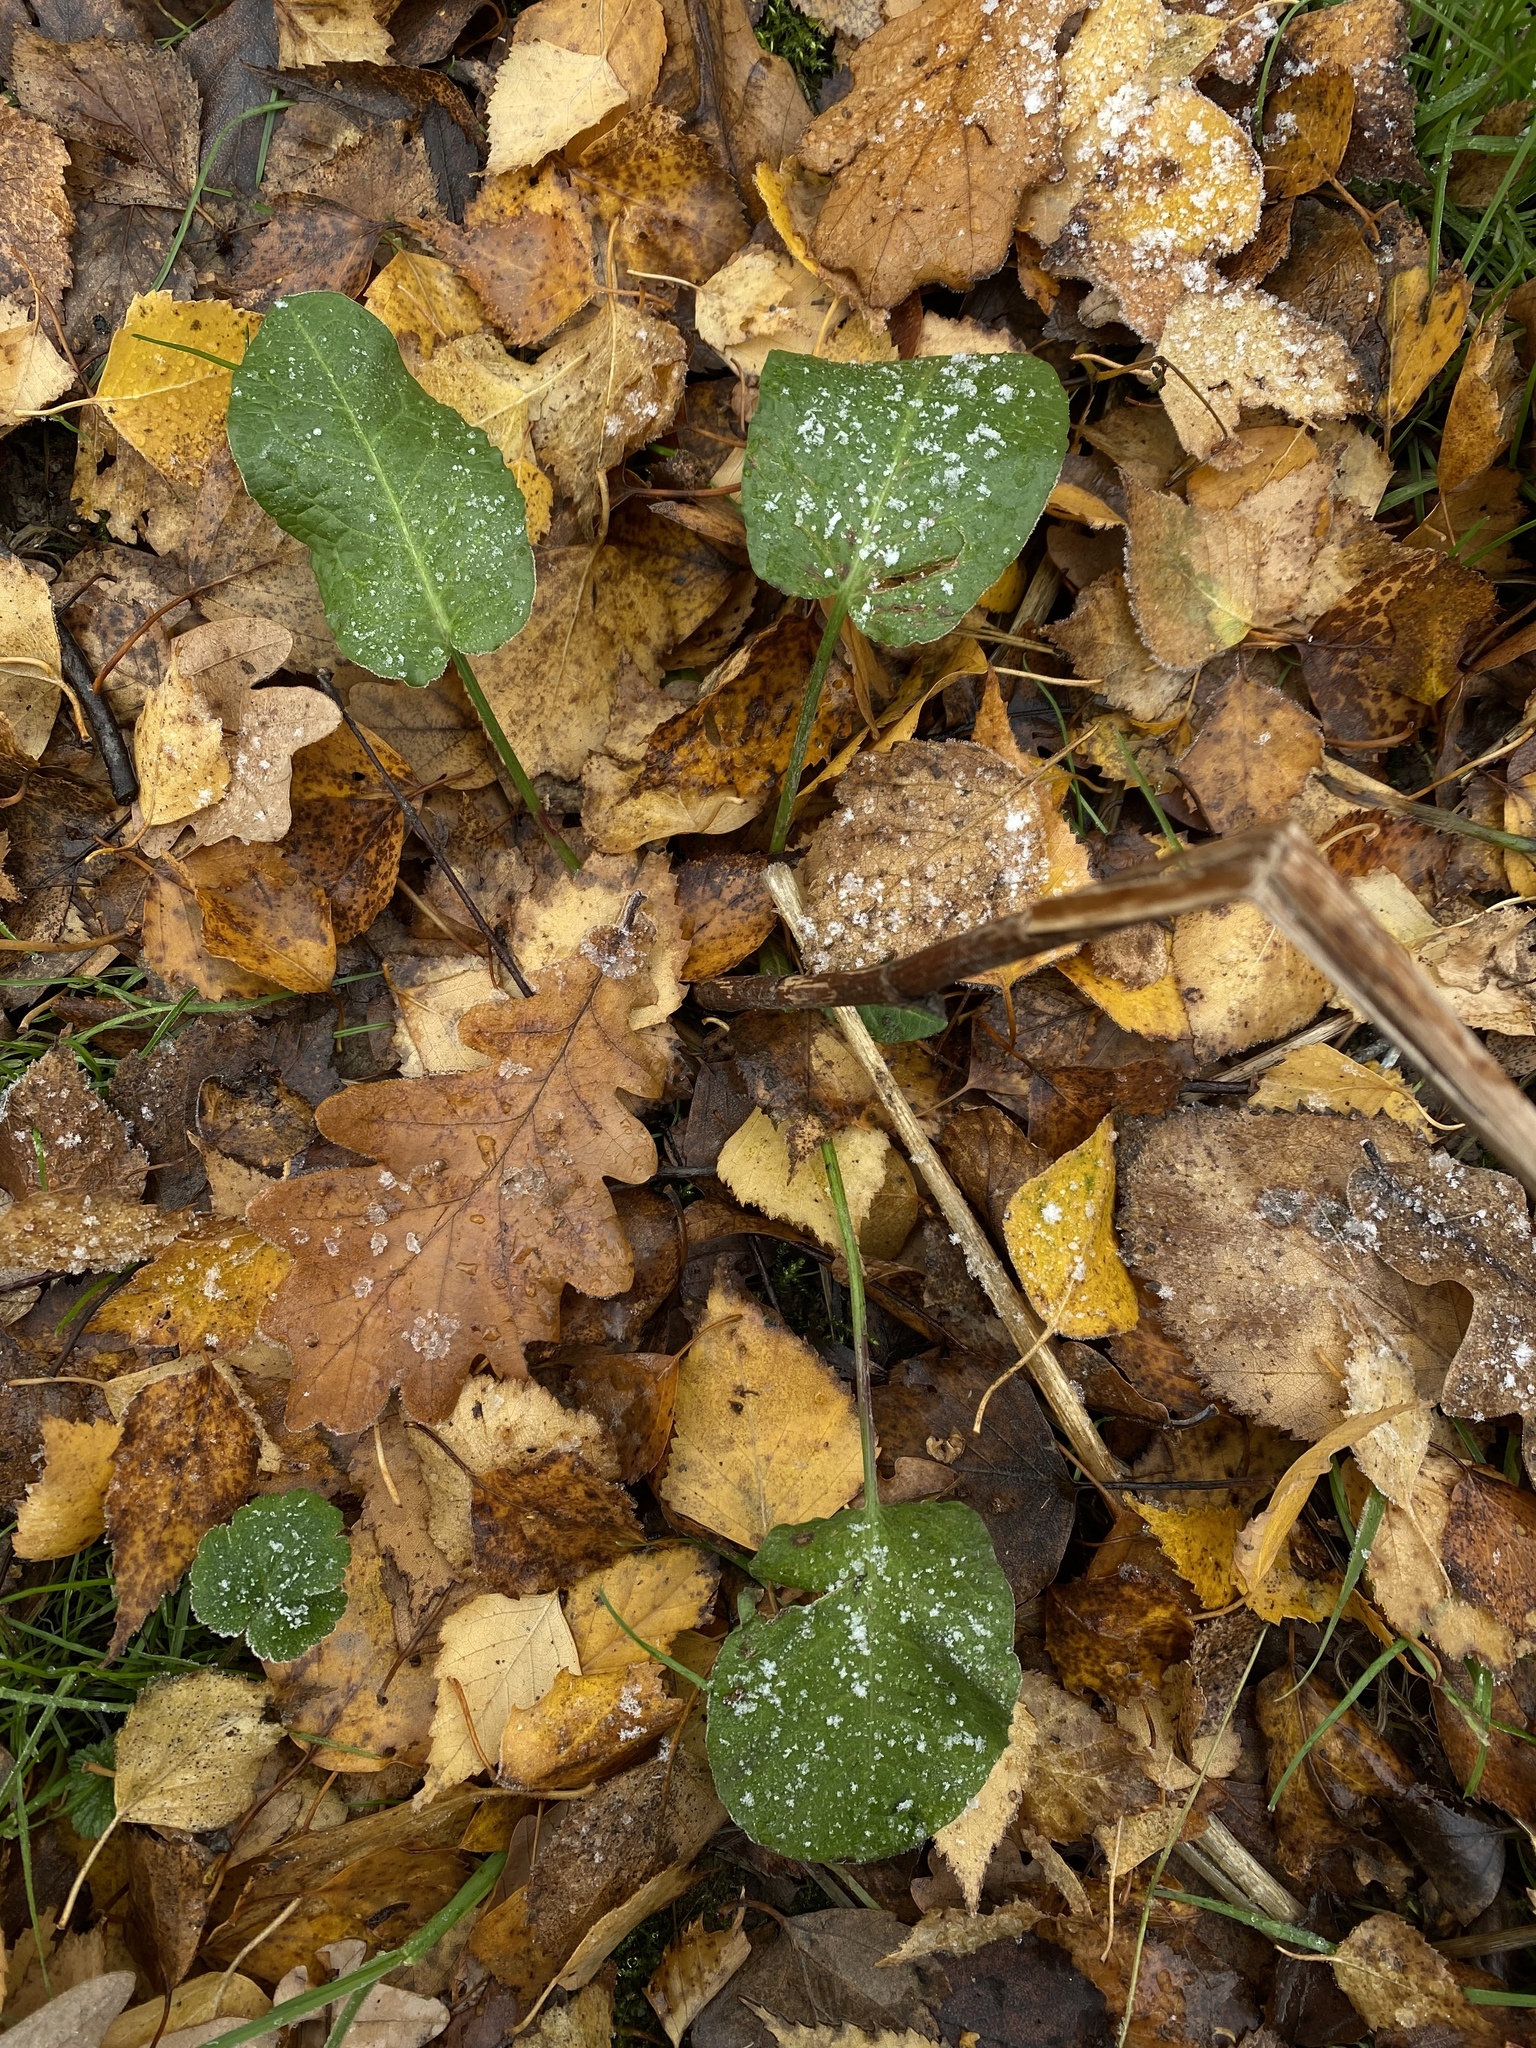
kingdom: Plantae
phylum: Tracheophyta
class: Magnoliopsida
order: Caryophyllales
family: Polygonaceae
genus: Rumex
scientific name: Rumex obtusifolius
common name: Bitter dock
